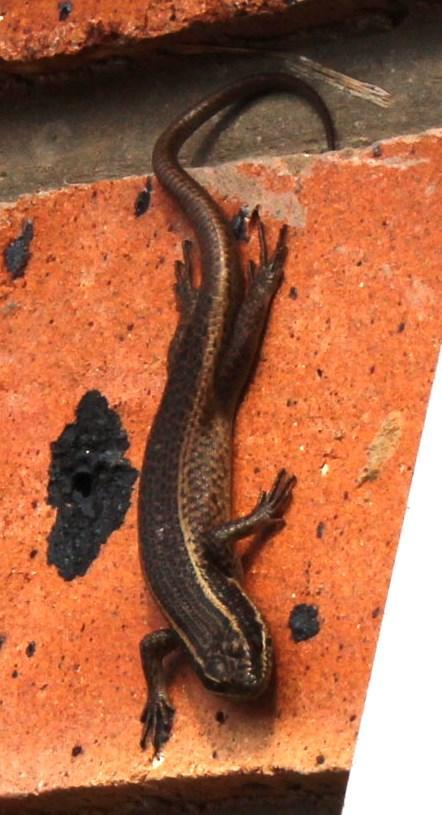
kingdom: Animalia
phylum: Chordata
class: Squamata
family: Scincidae
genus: Trachylepis
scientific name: Trachylepis punctatissima
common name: Montane speckled skink
